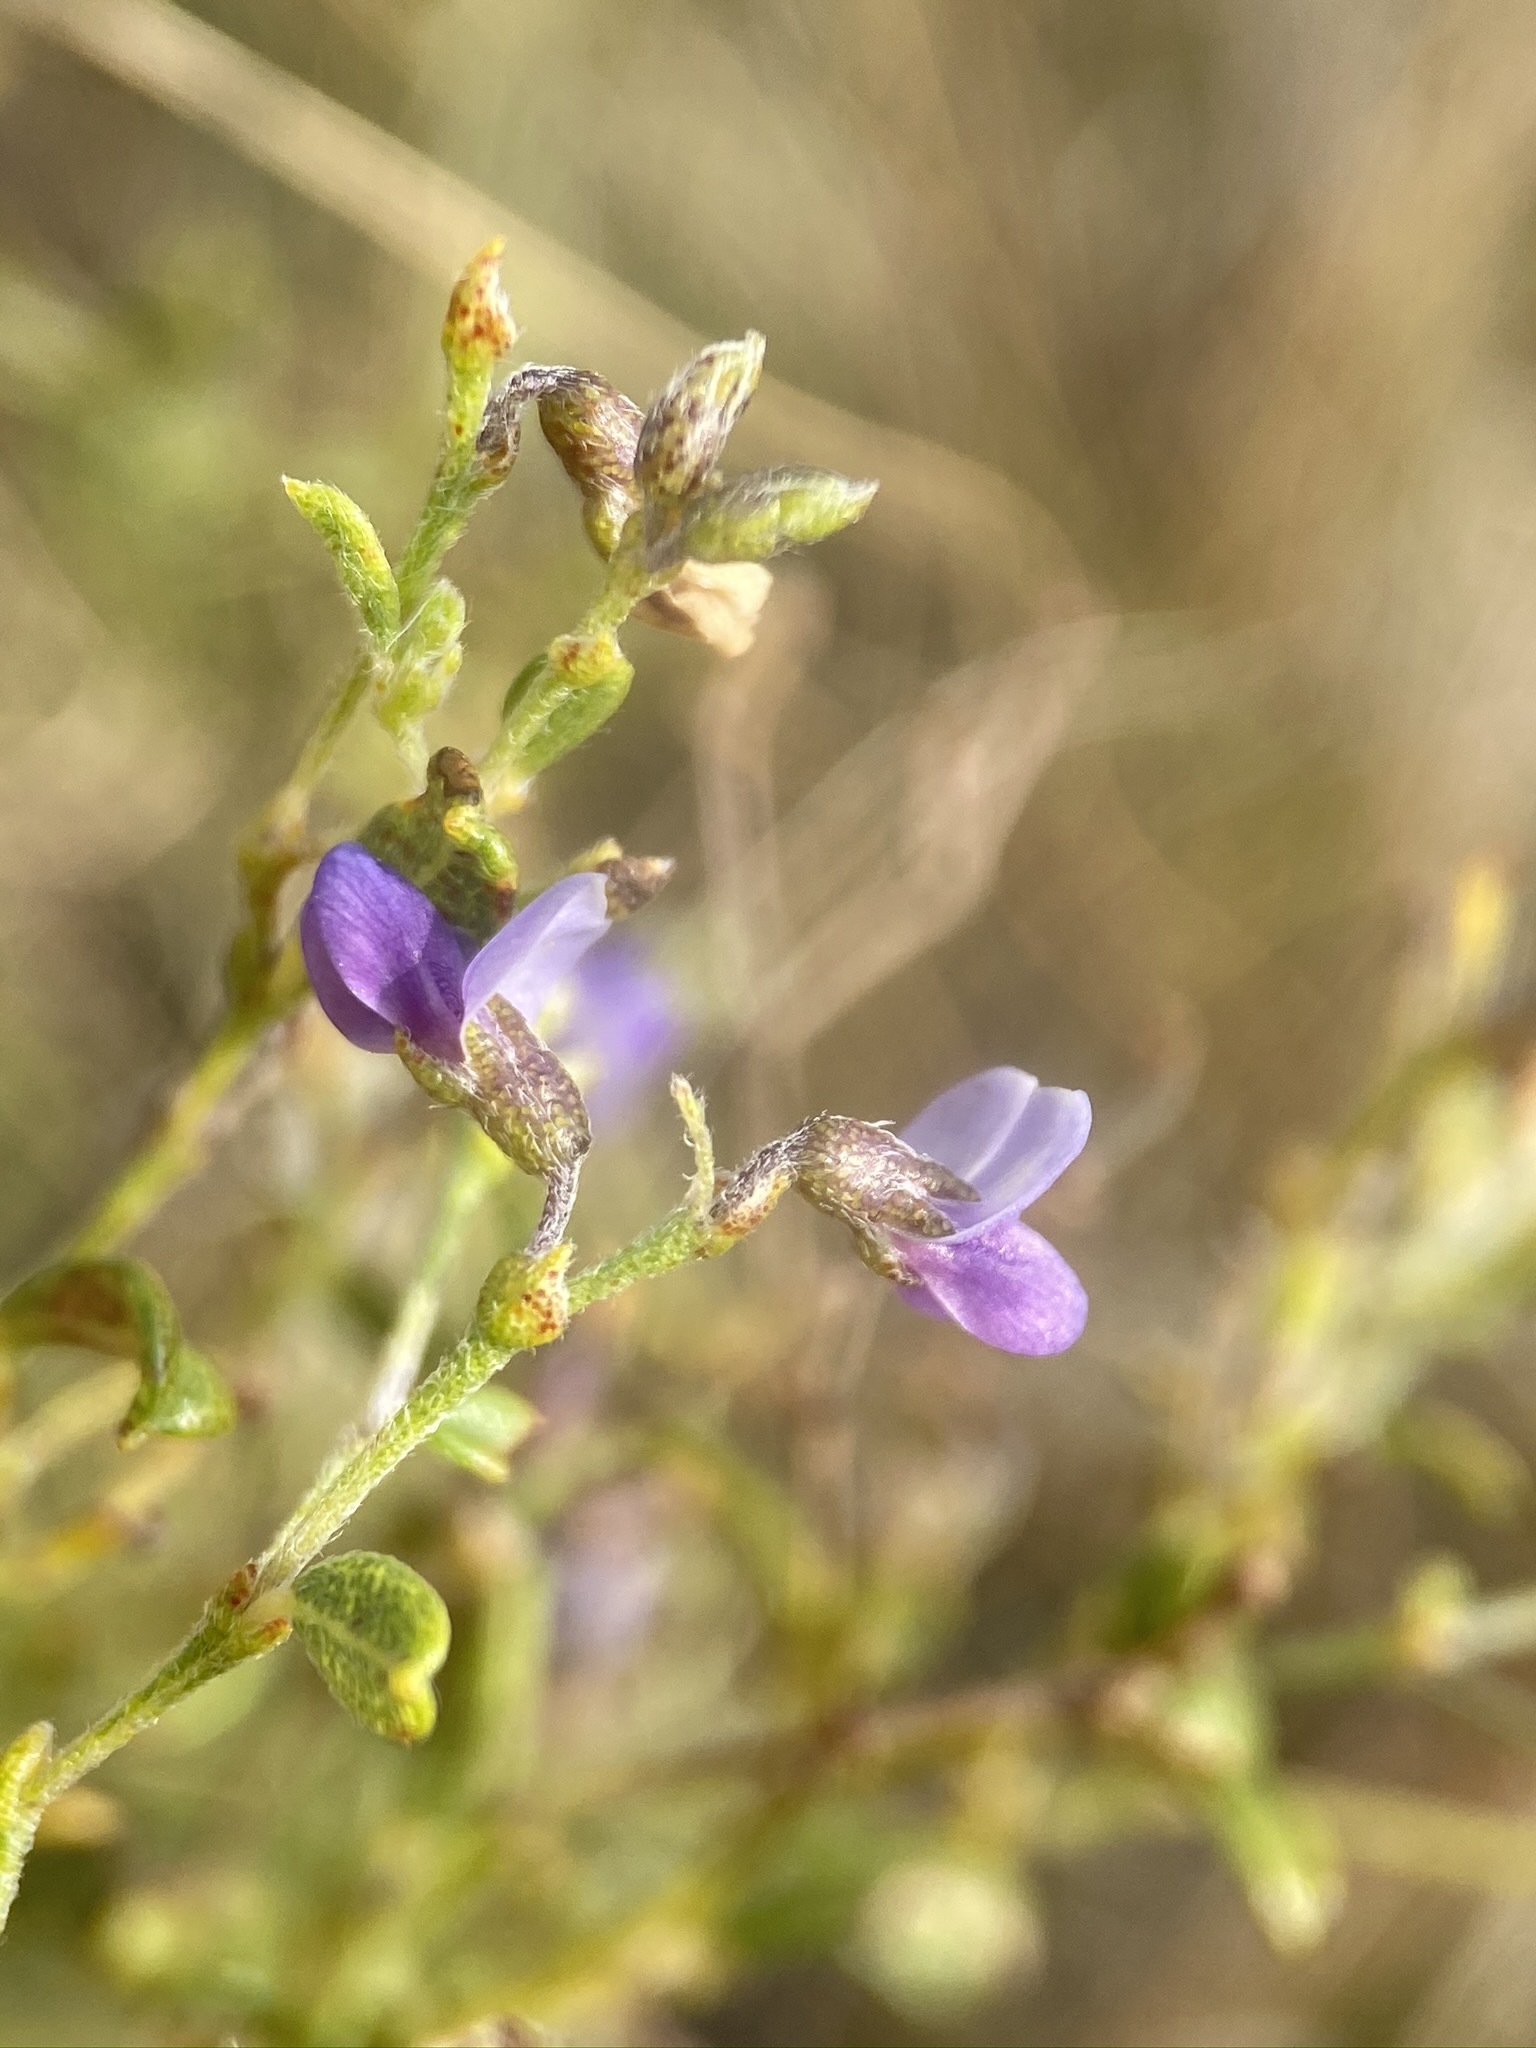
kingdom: Plantae
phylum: Tracheophyta
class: Magnoliopsida
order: Fabales
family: Fabaceae
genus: Pediomelum
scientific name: Pediomelum tenuiflorum
